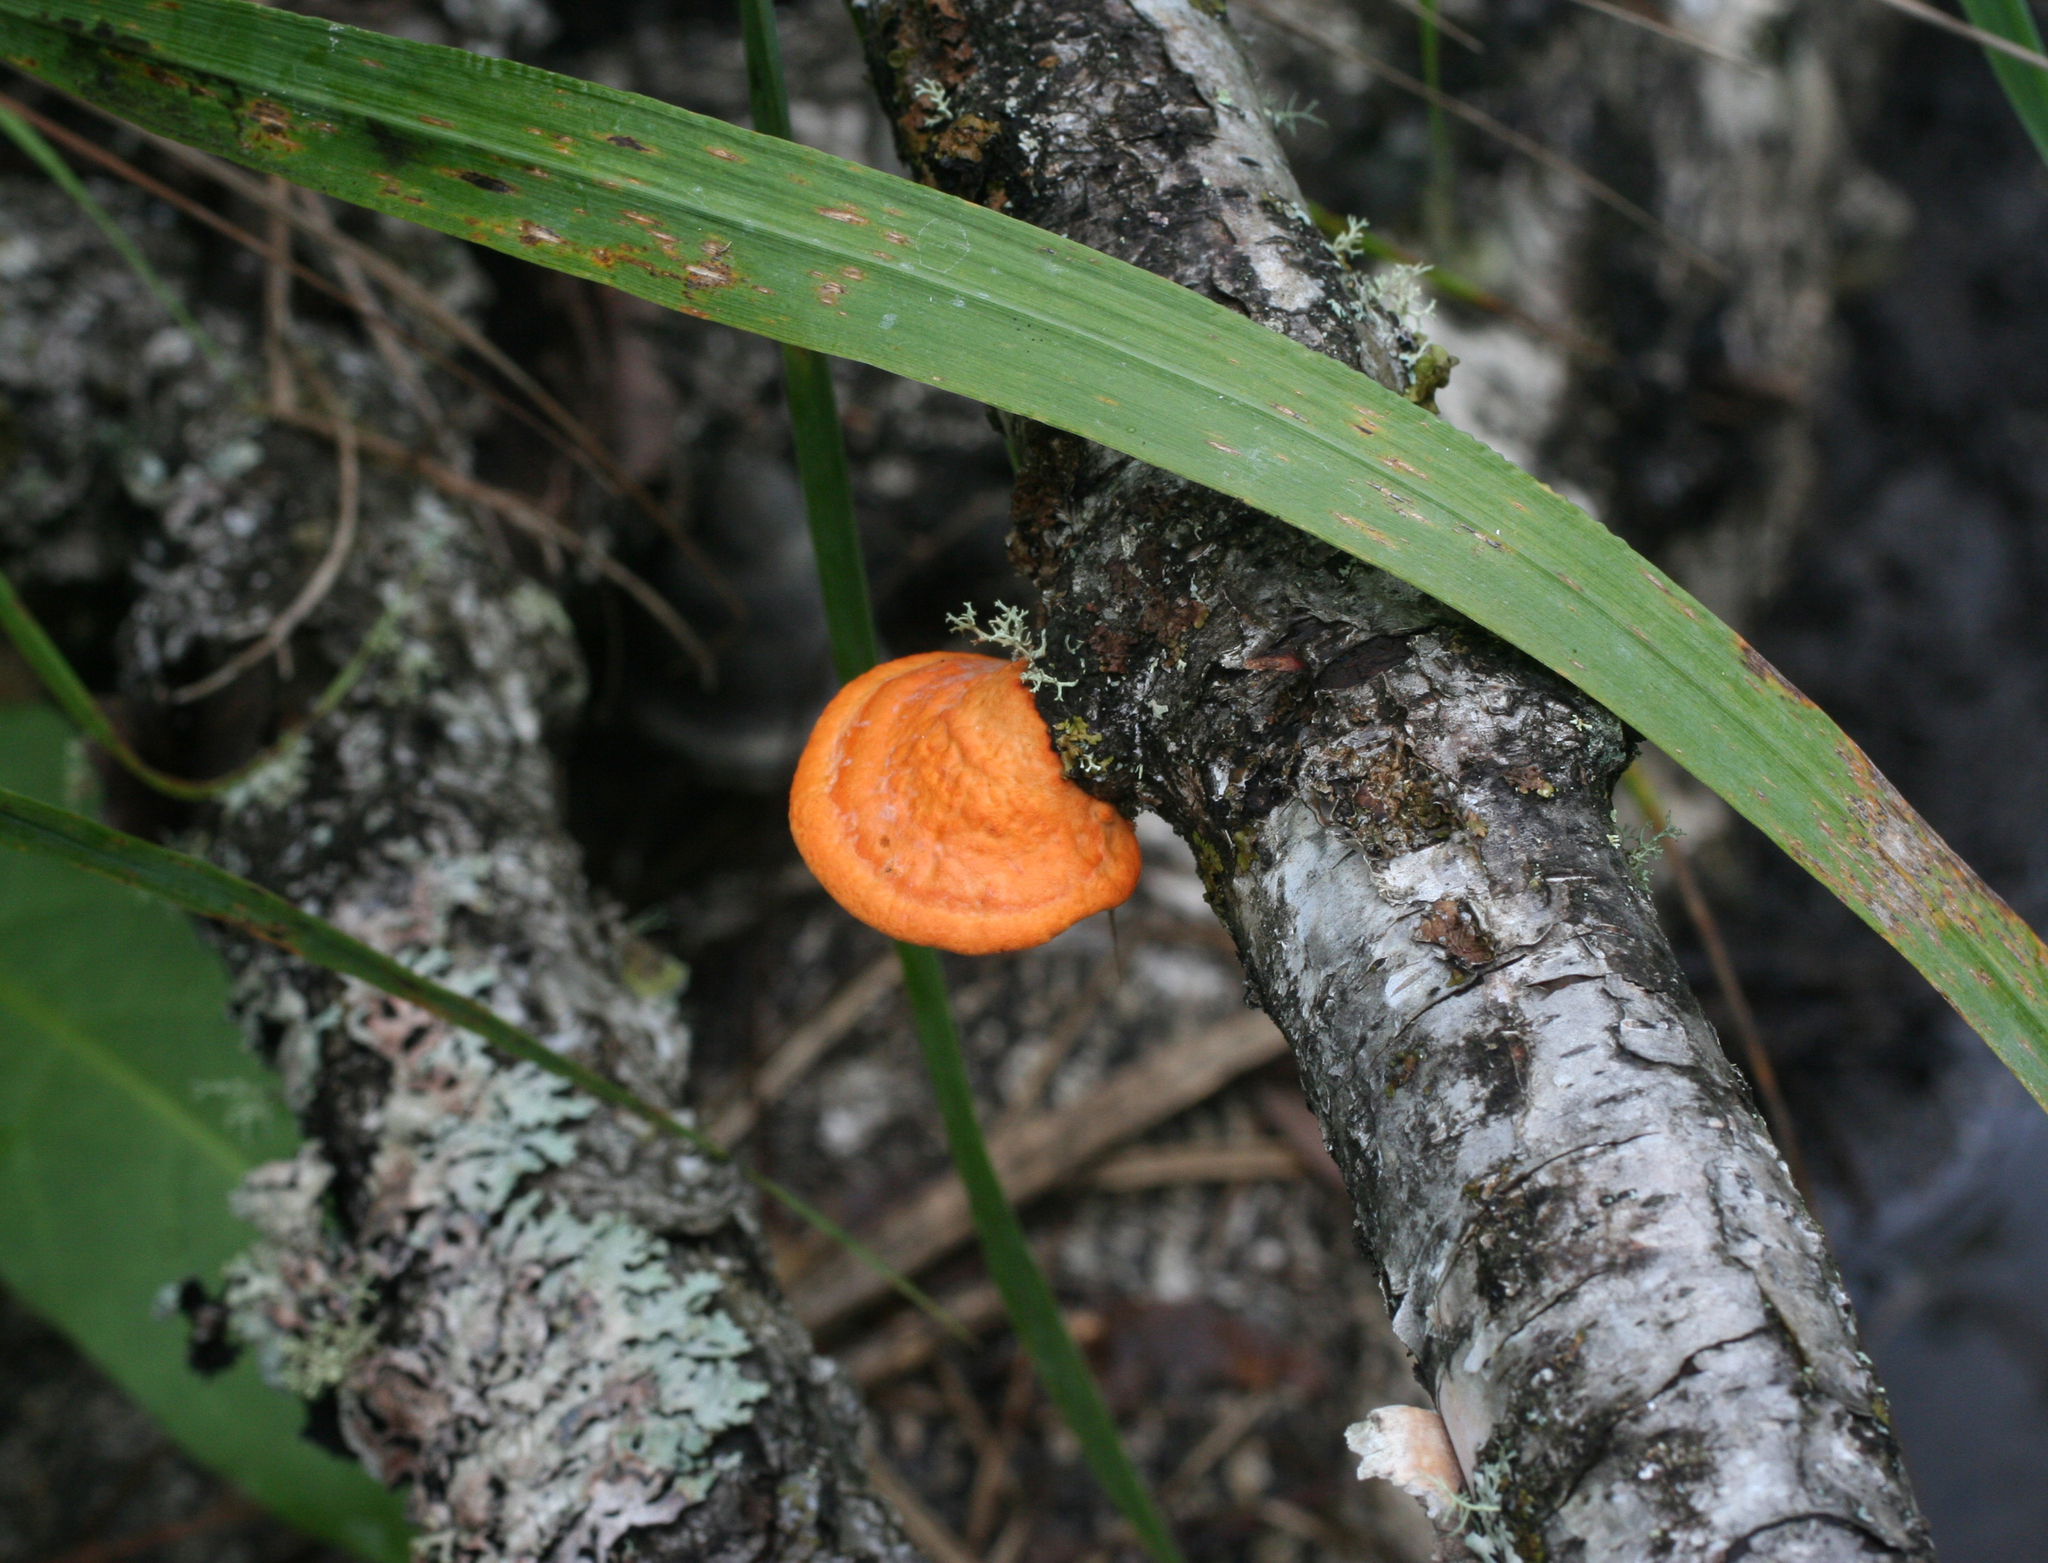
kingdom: Fungi
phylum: Basidiomycota
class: Agaricomycetes
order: Polyporales
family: Polyporaceae
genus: Trametes
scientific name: Trametes cinnabarina
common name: Northern cinnabar polypore
